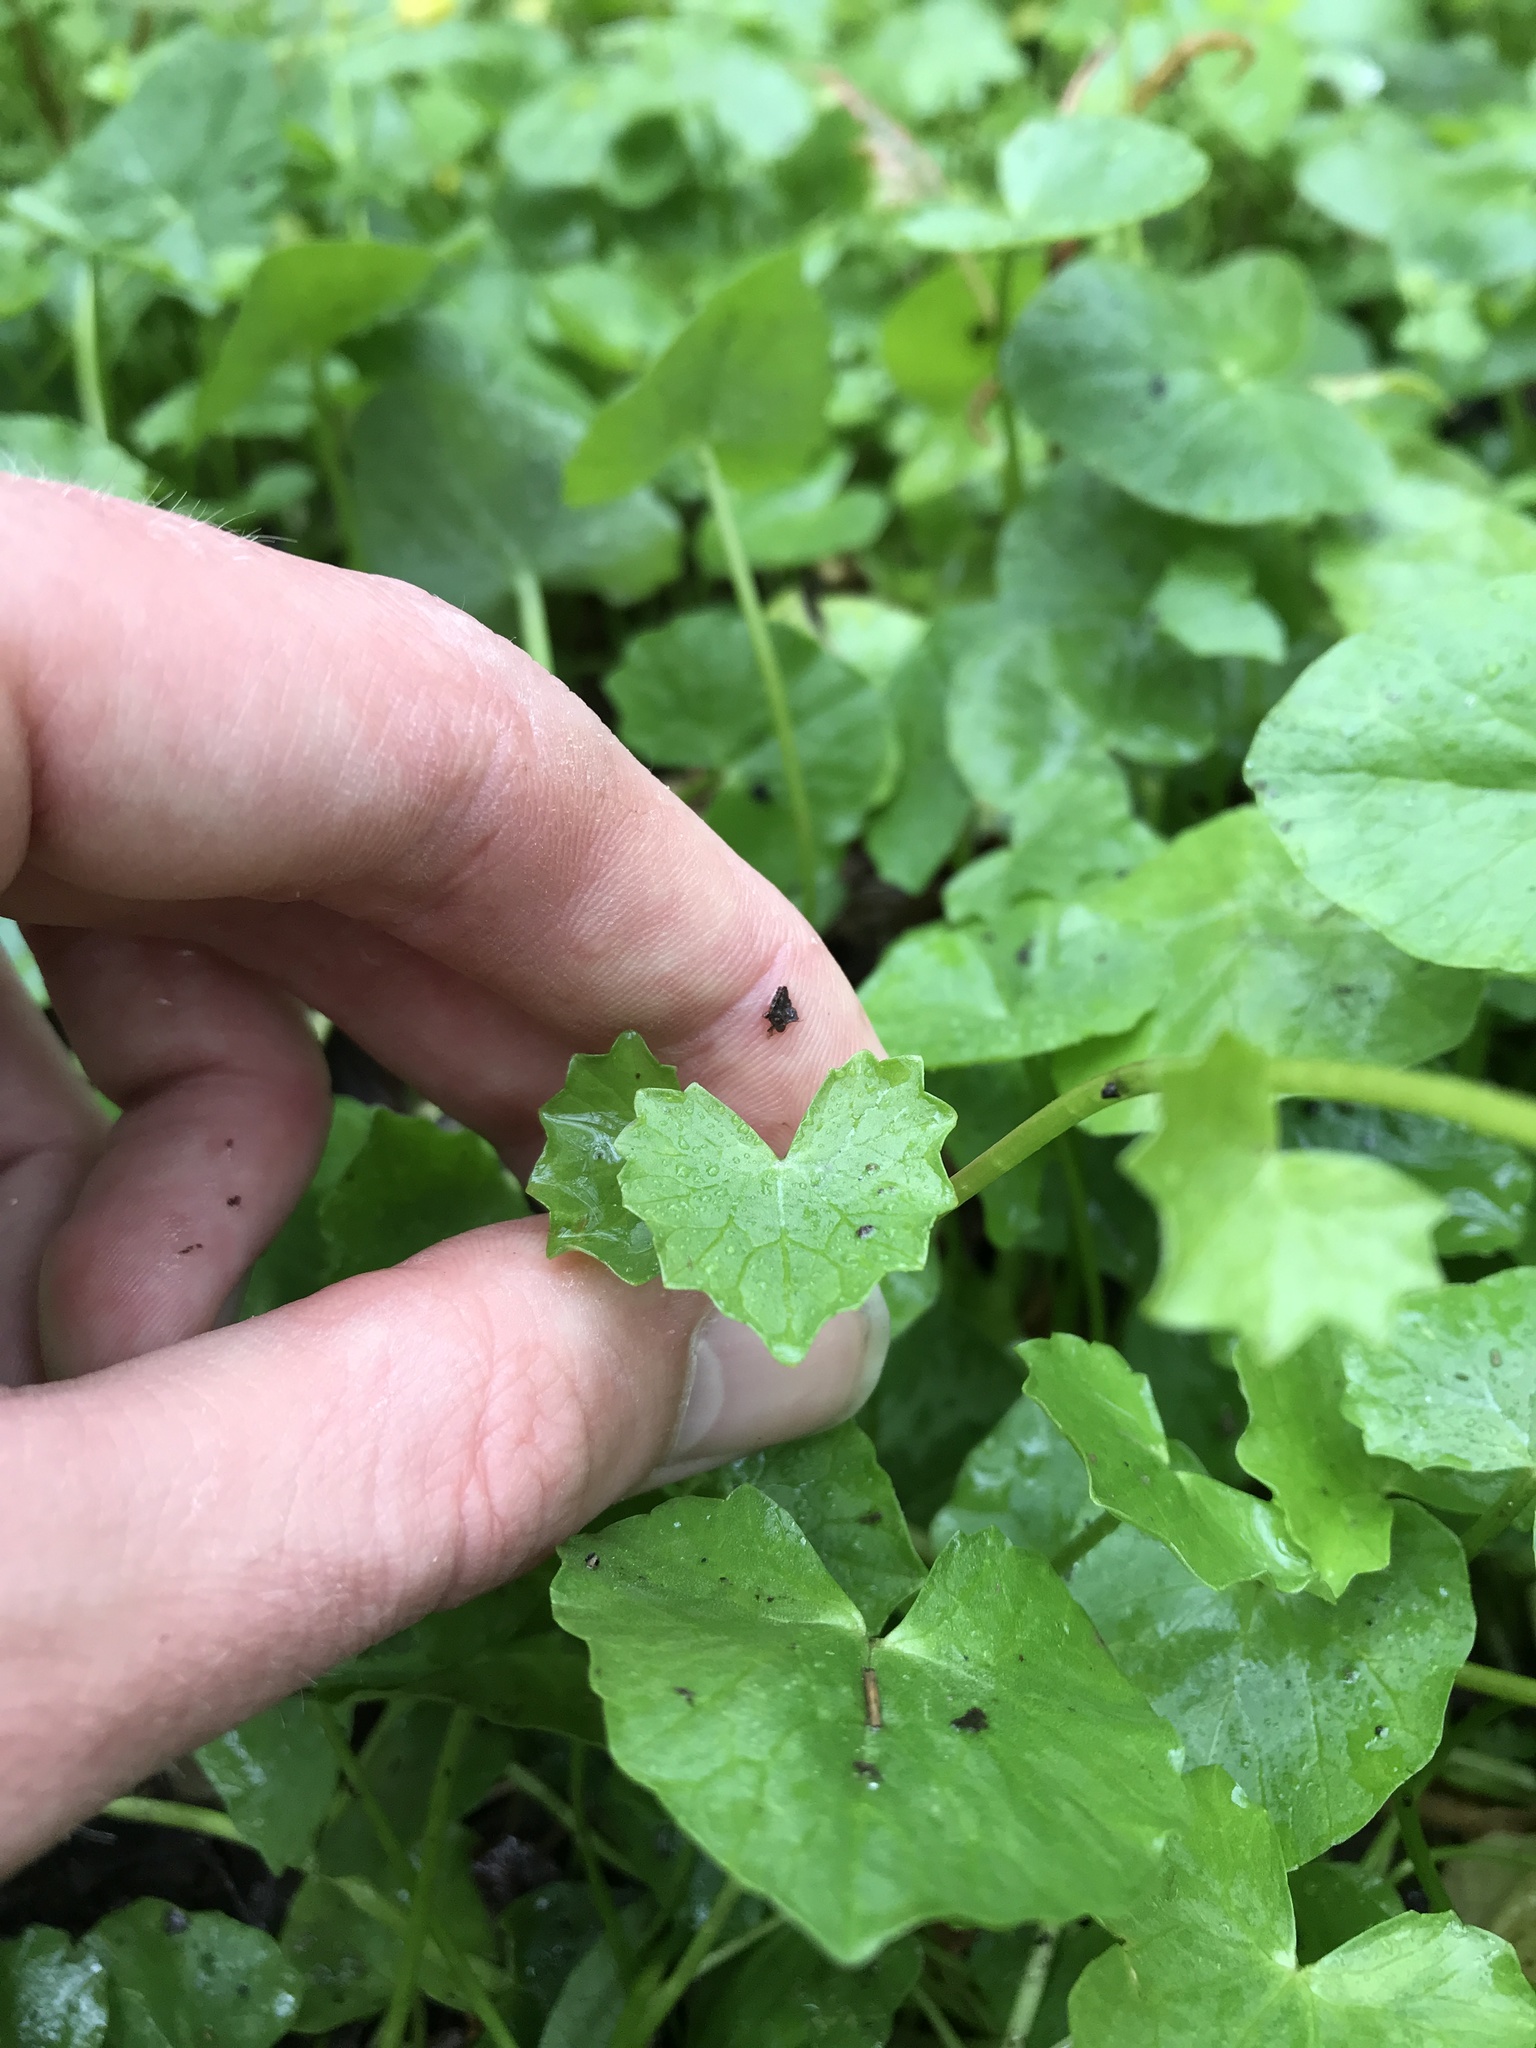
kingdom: Plantae
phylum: Tracheophyta
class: Magnoliopsida
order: Ranunculales
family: Ranunculaceae
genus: Ficaria
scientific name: Ficaria verna
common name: Lesser celandine
